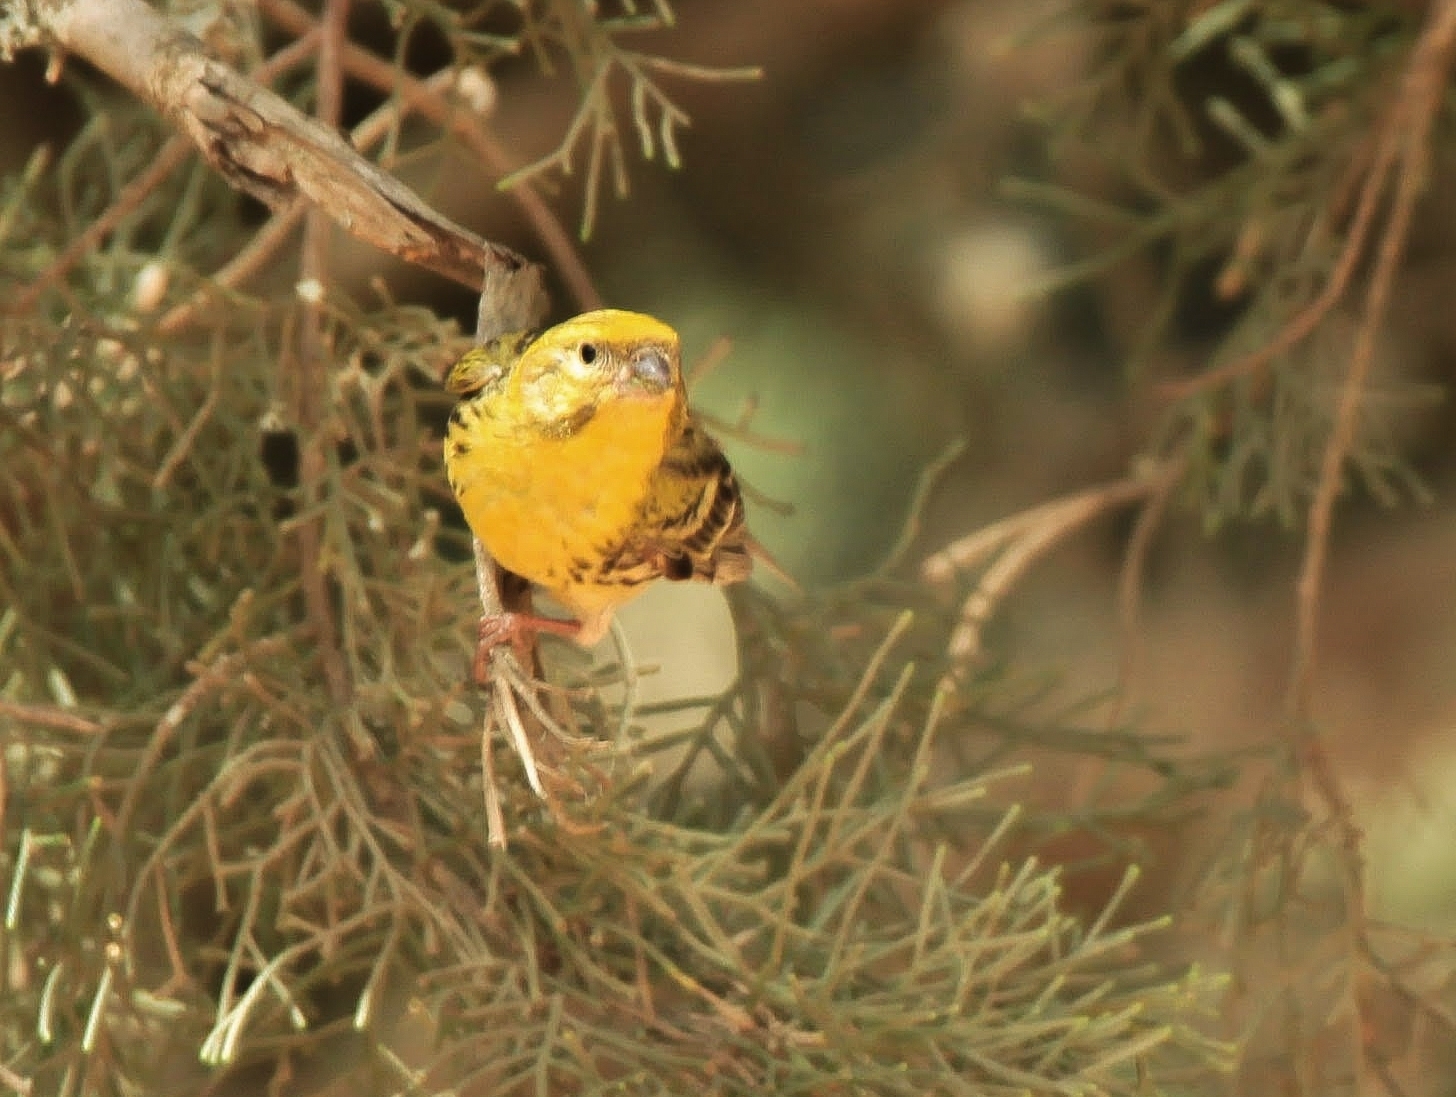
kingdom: Animalia
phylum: Chordata
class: Aves
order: Passeriformes
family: Fringillidae
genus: Serinus
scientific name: Serinus serinus
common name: European serin
